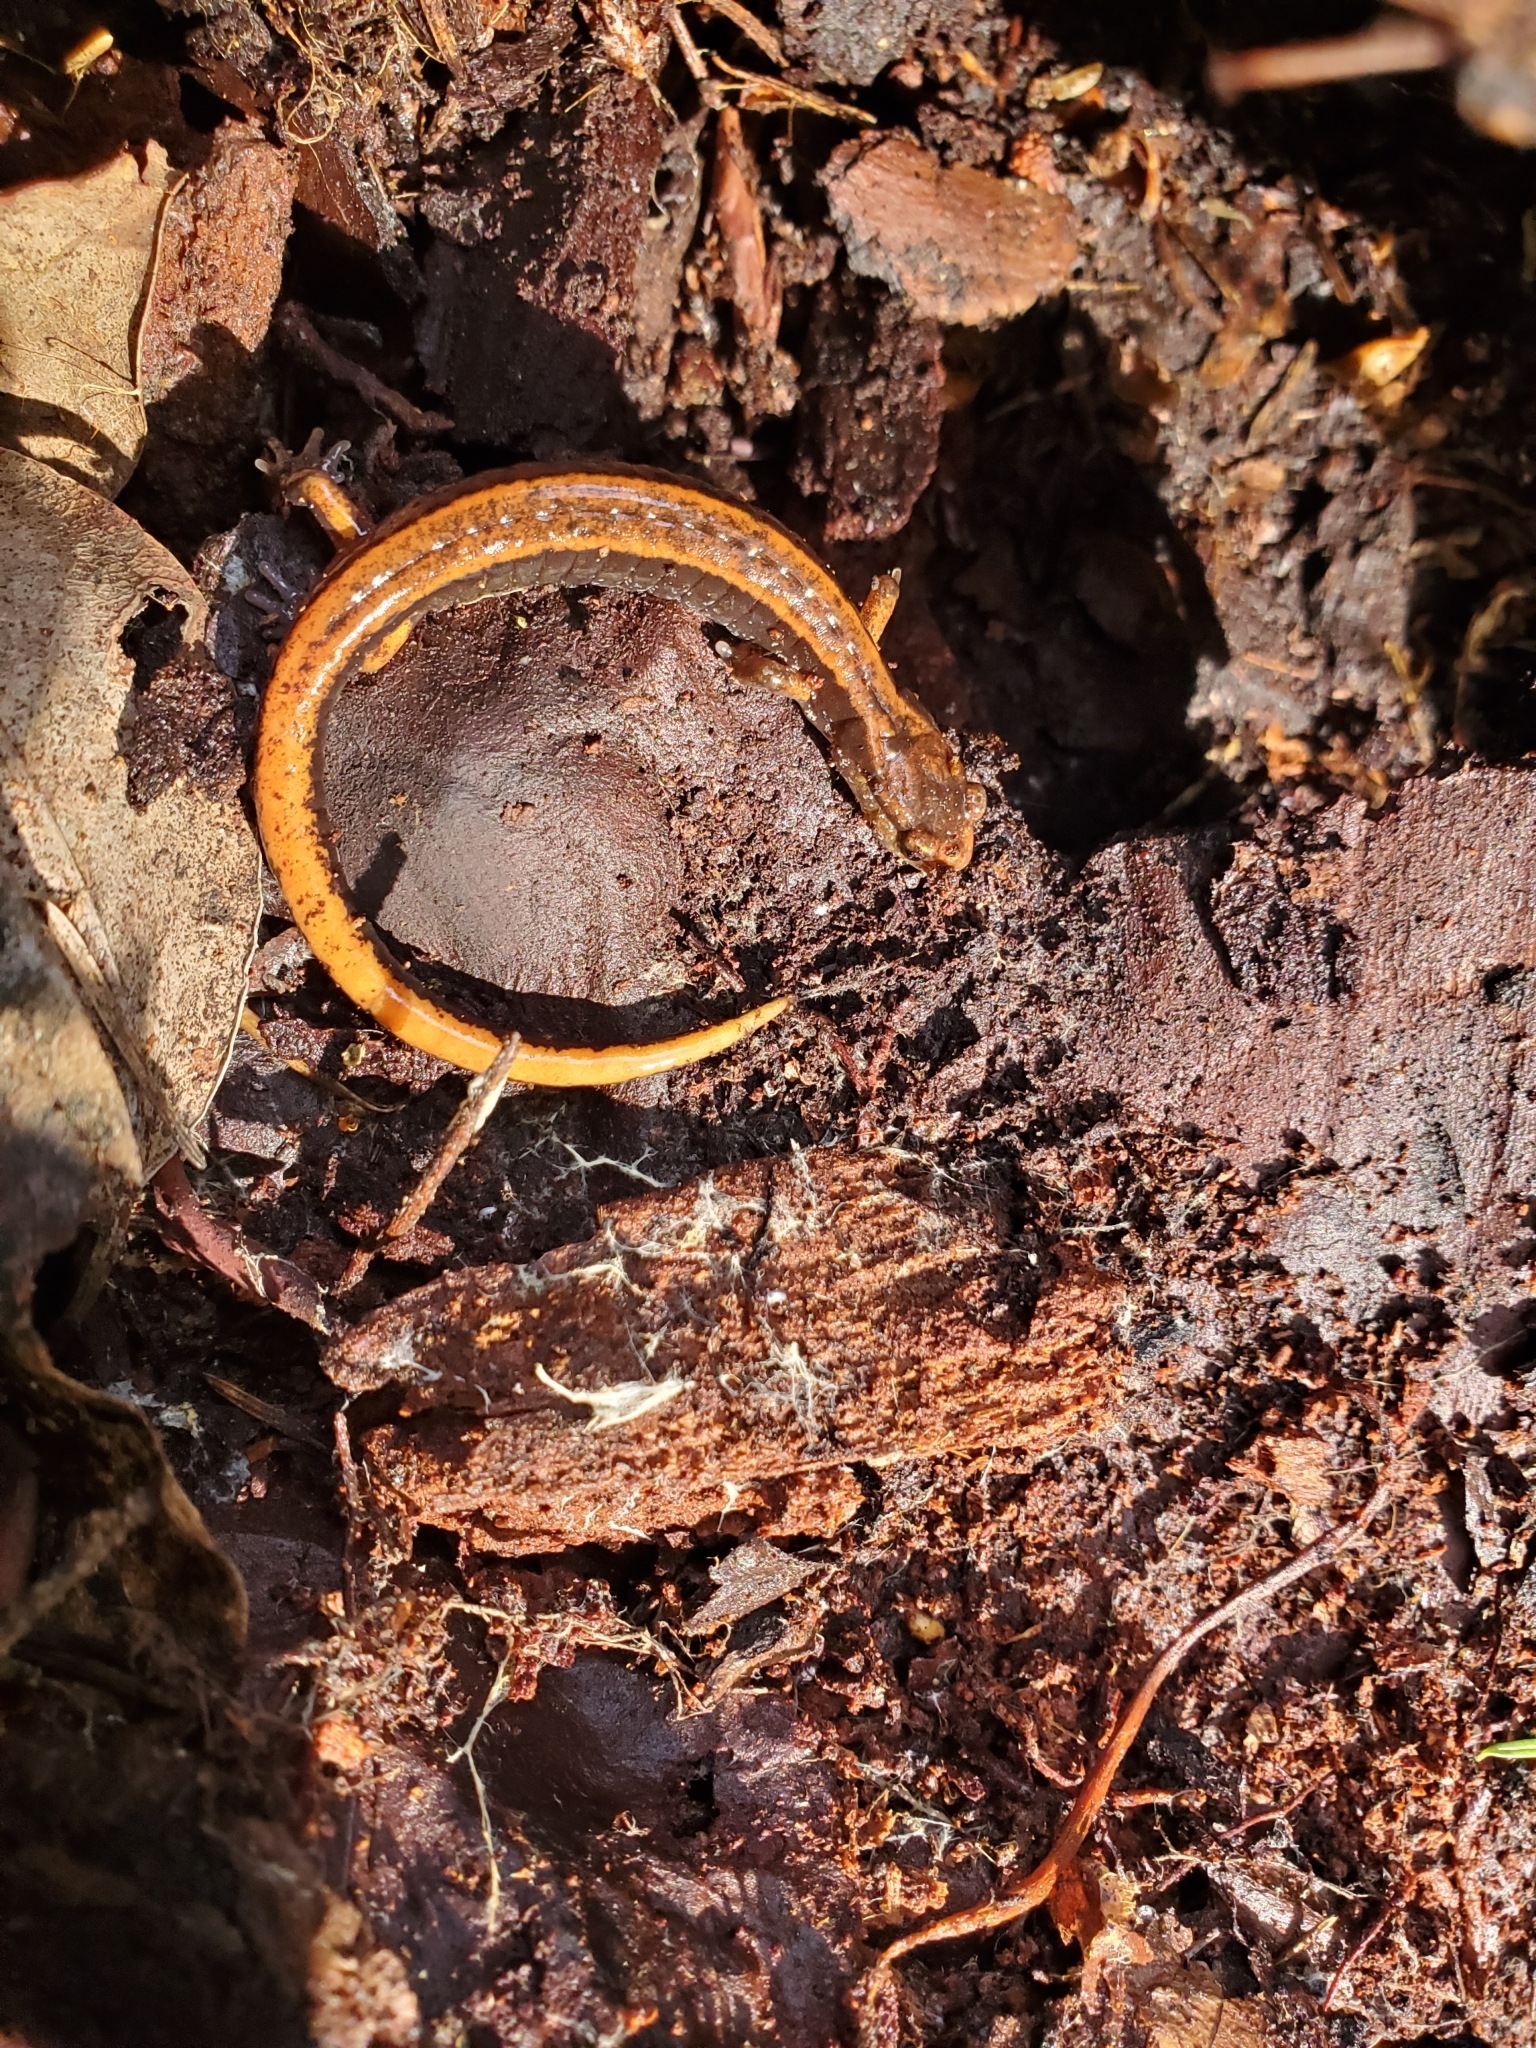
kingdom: Animalia
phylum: Chordata
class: Amphibia
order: Caudata
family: Plethodontidae
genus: Plethodon
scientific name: Plethodon vehiculum
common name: Western red-backed salamander
